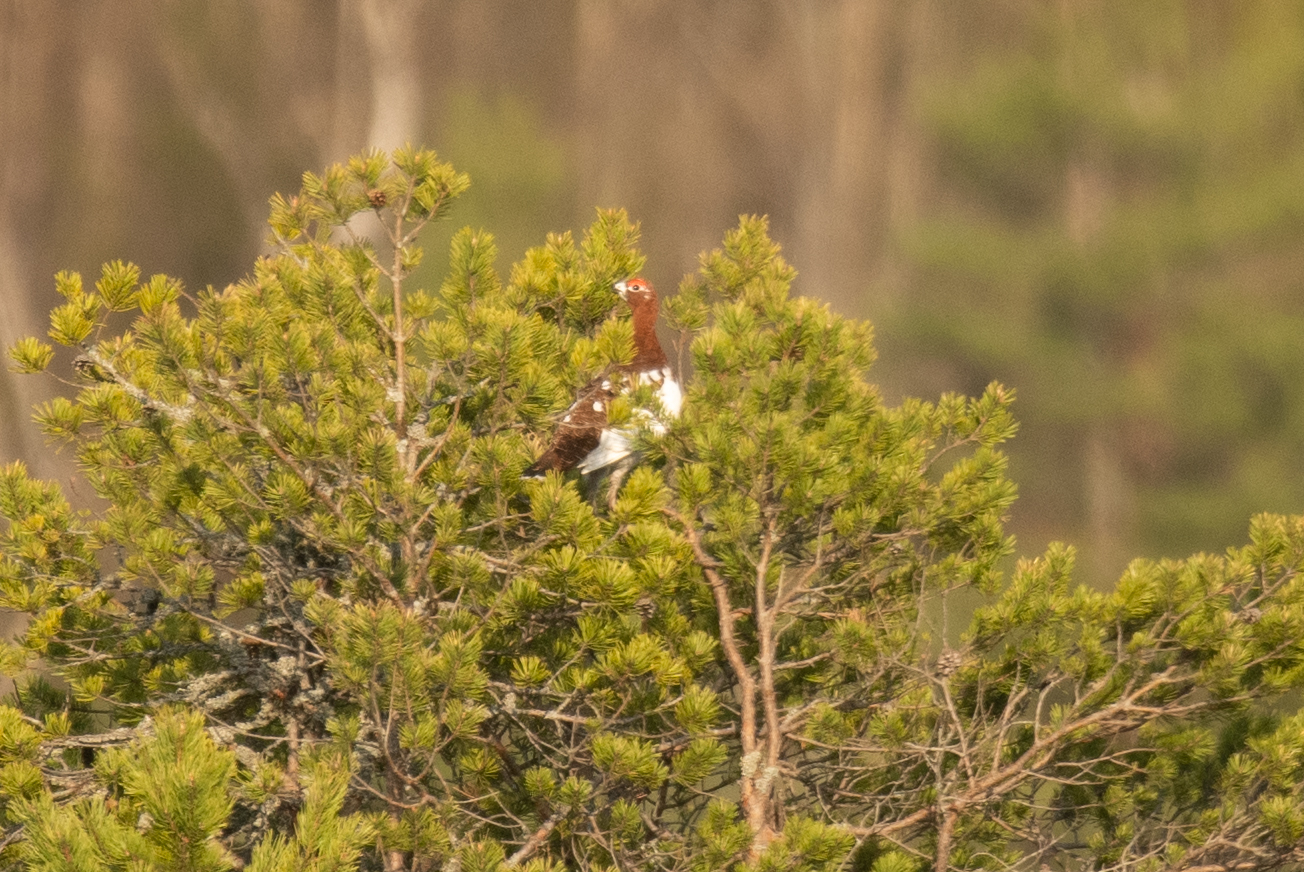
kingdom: Animalia
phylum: Chordata
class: Aves
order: Galliformes
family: Phasianidae
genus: Lagopus
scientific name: Lagopus lagopus
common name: Willow ptarmigan
